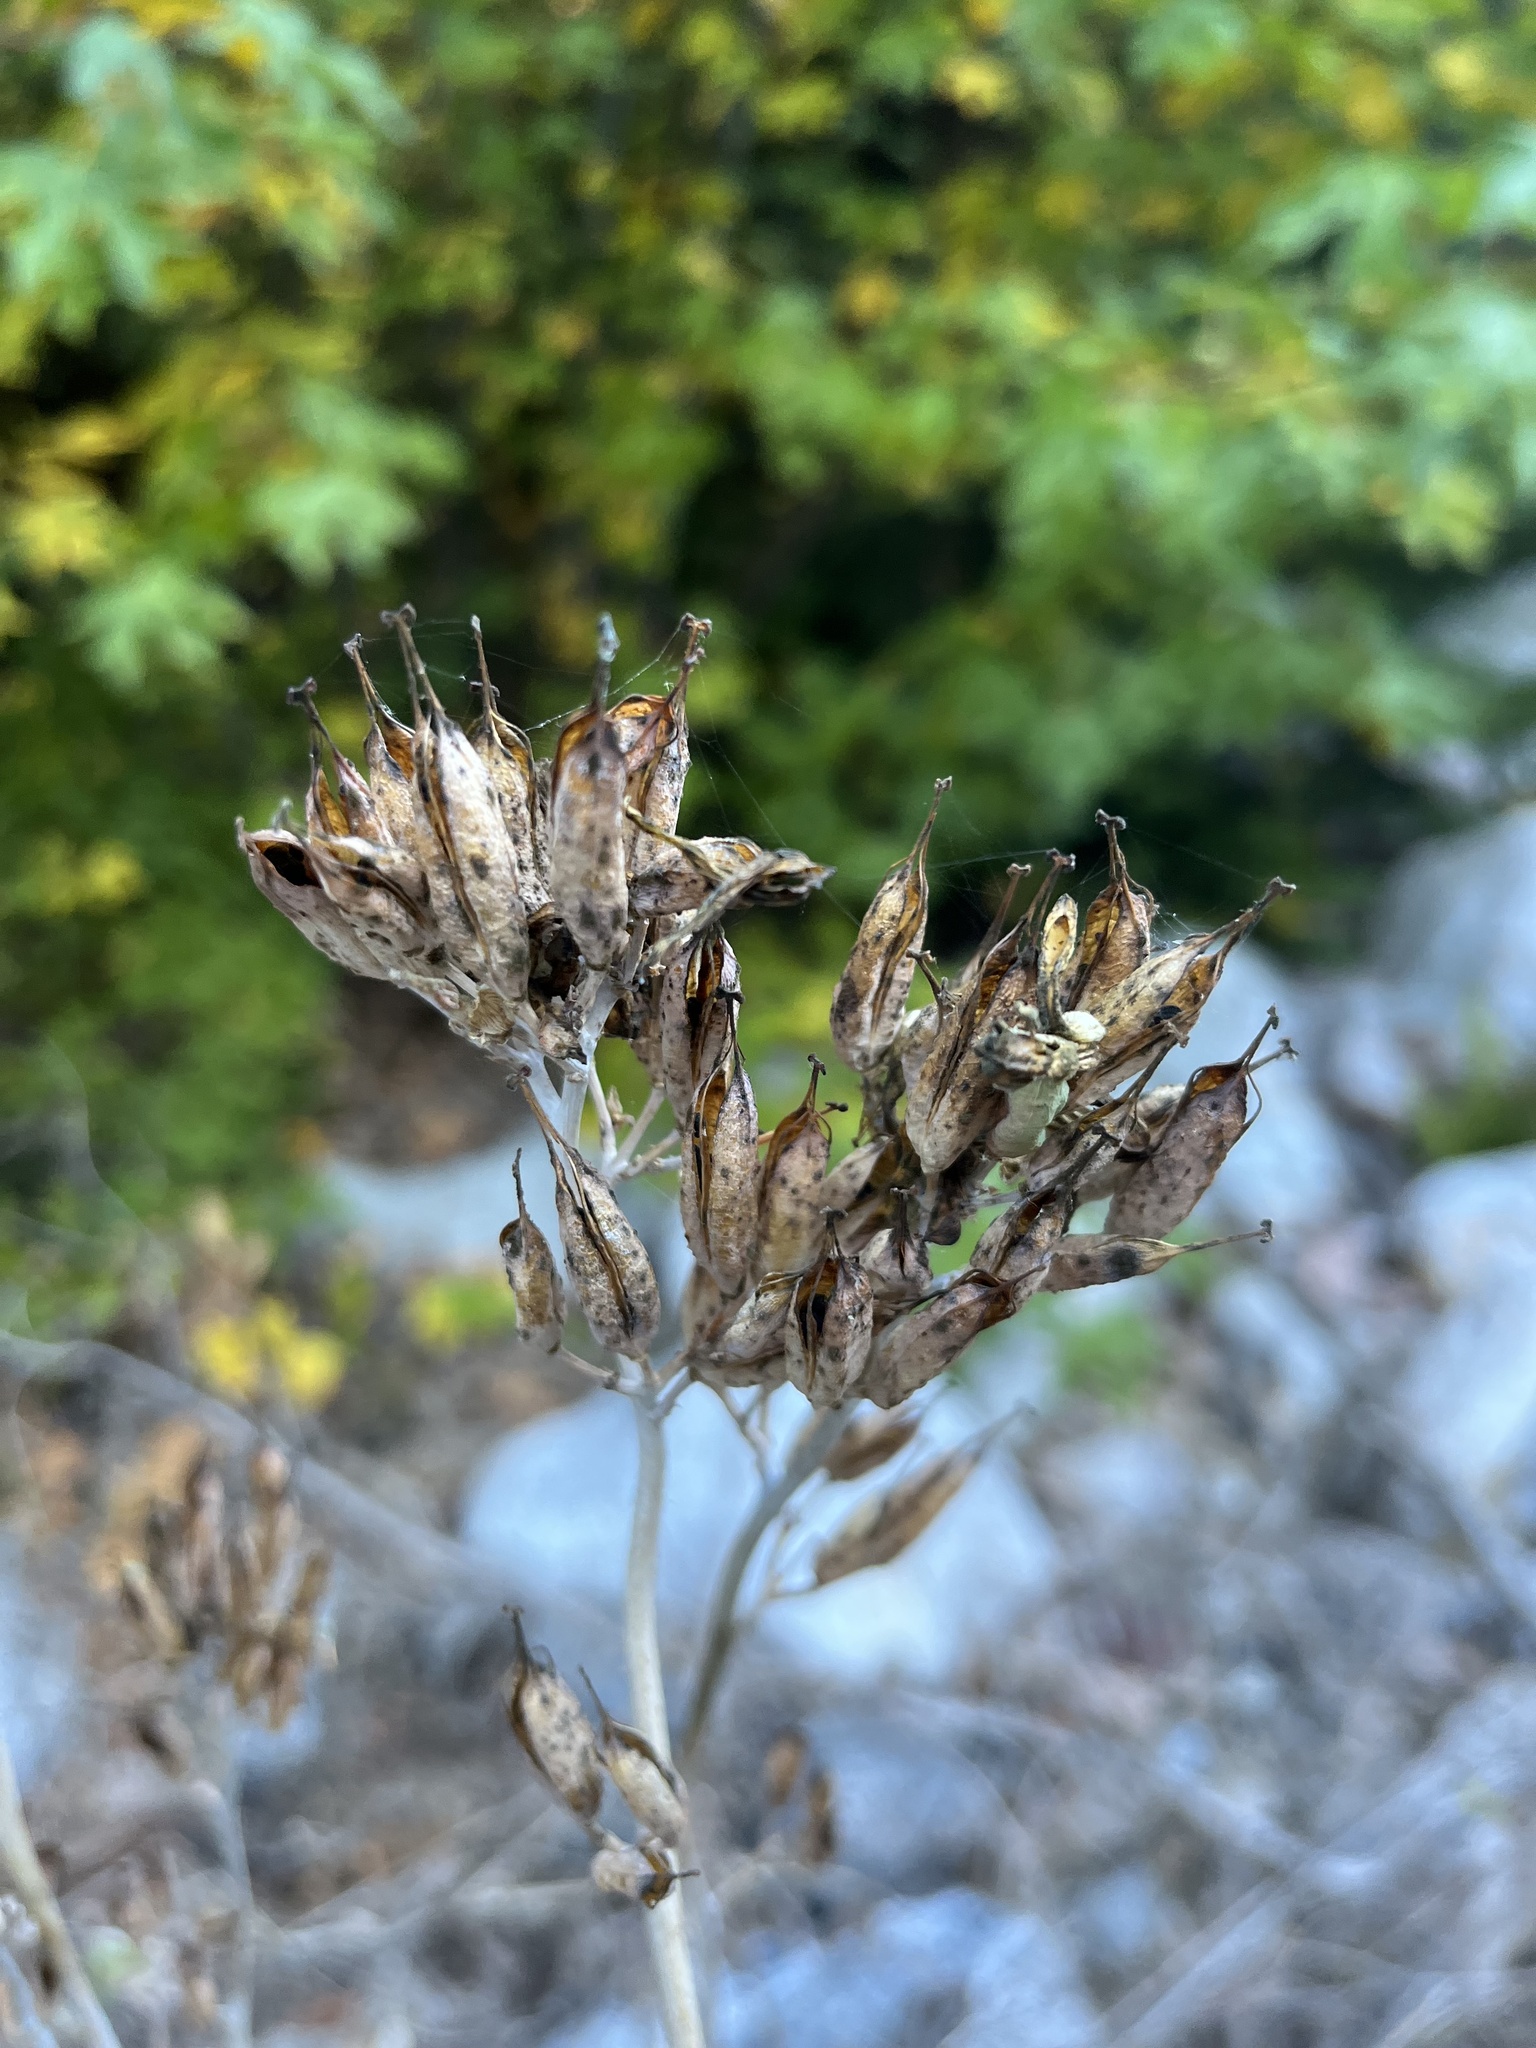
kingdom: Plantae
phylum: Tracheophyta
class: Magnoliopsida
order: Ranunculales
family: Papaveraceae
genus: Ehrendorferia
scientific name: Ehrendorferia chrysantha
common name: Golden eardrops
